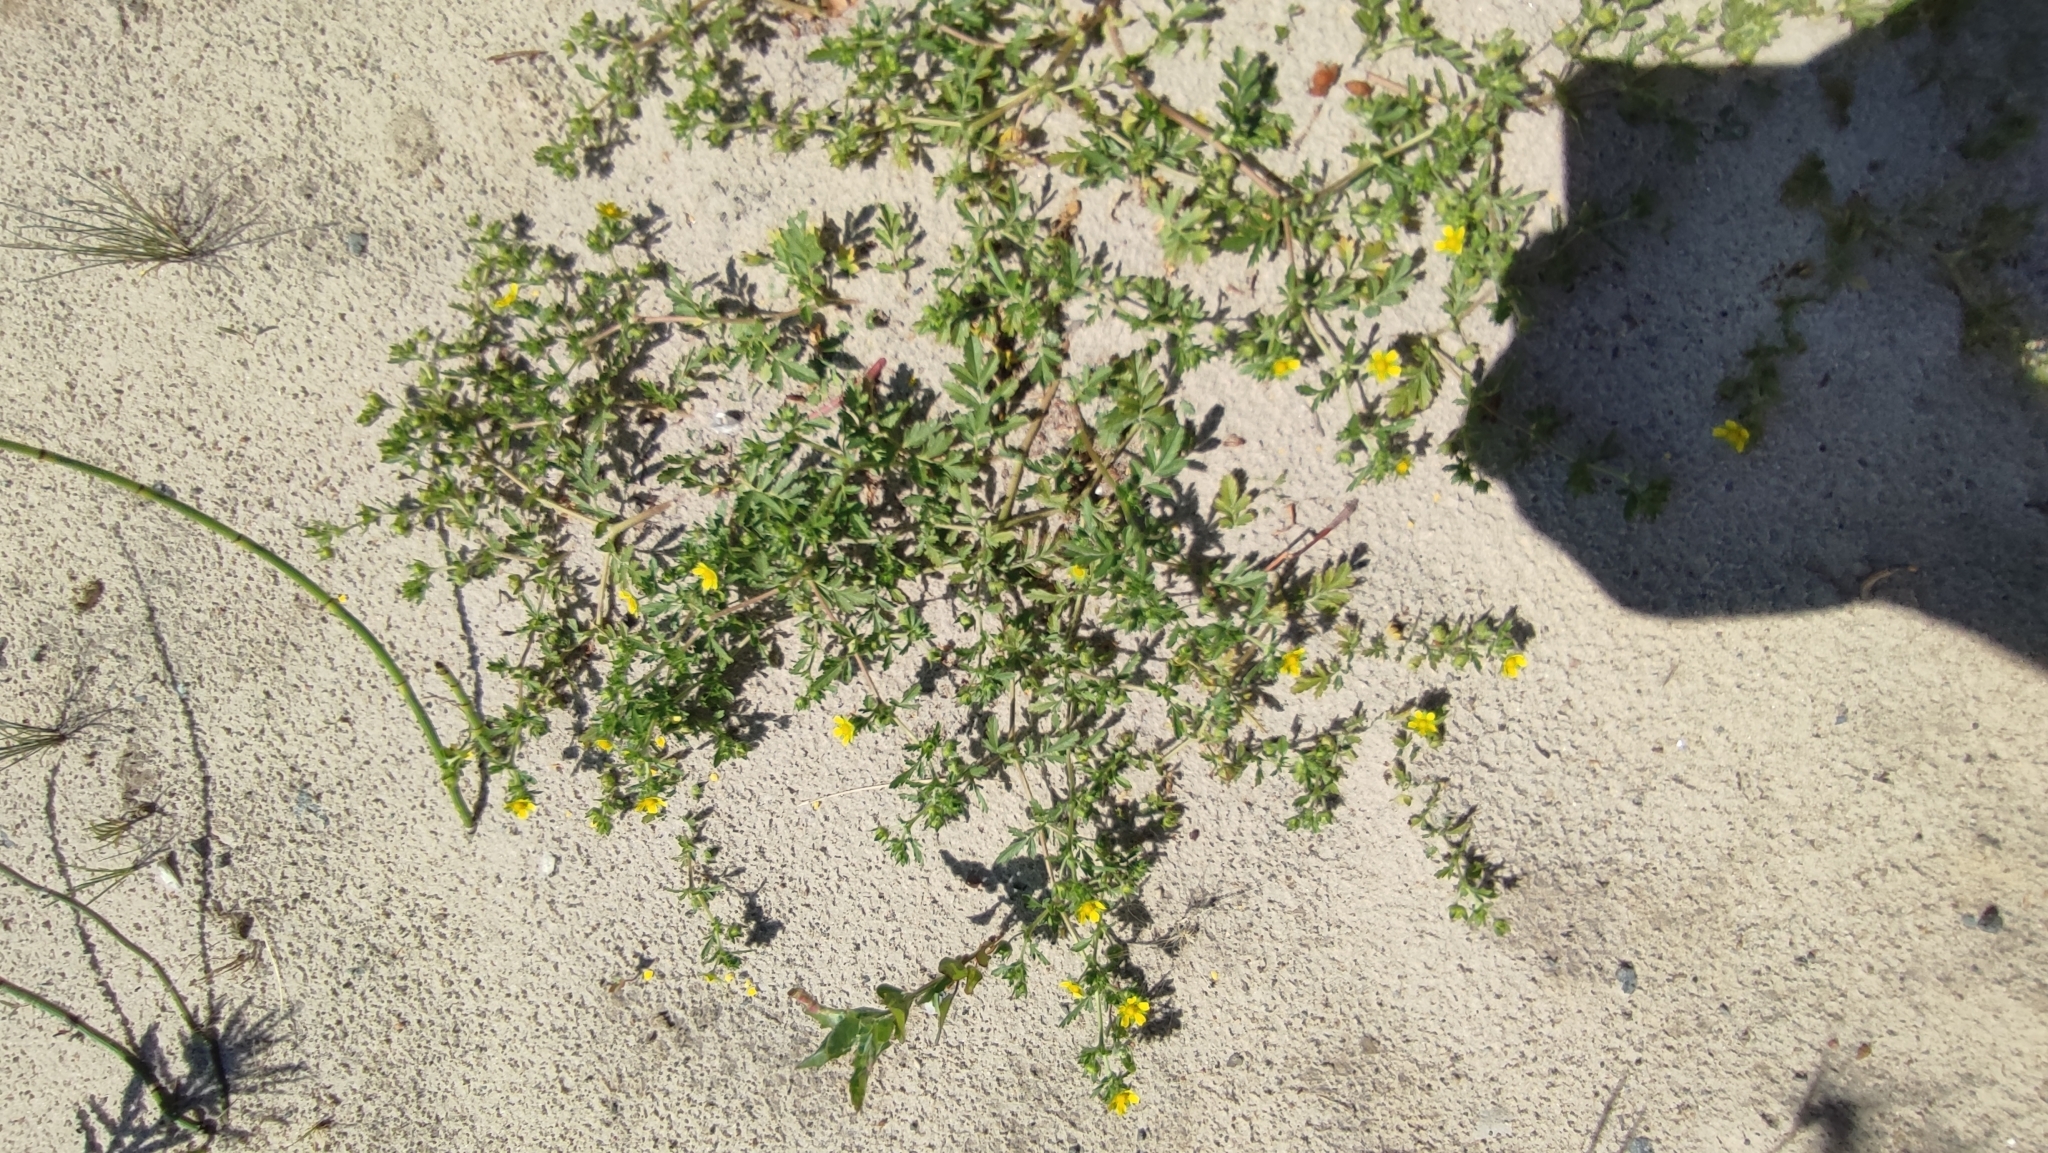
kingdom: Plantae
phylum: Tracheophyta
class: Magnoliopsida
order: Rosales
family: Rosaceae
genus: Potentilla
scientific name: Potentilla supina
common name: Prostrate cinquefoil
